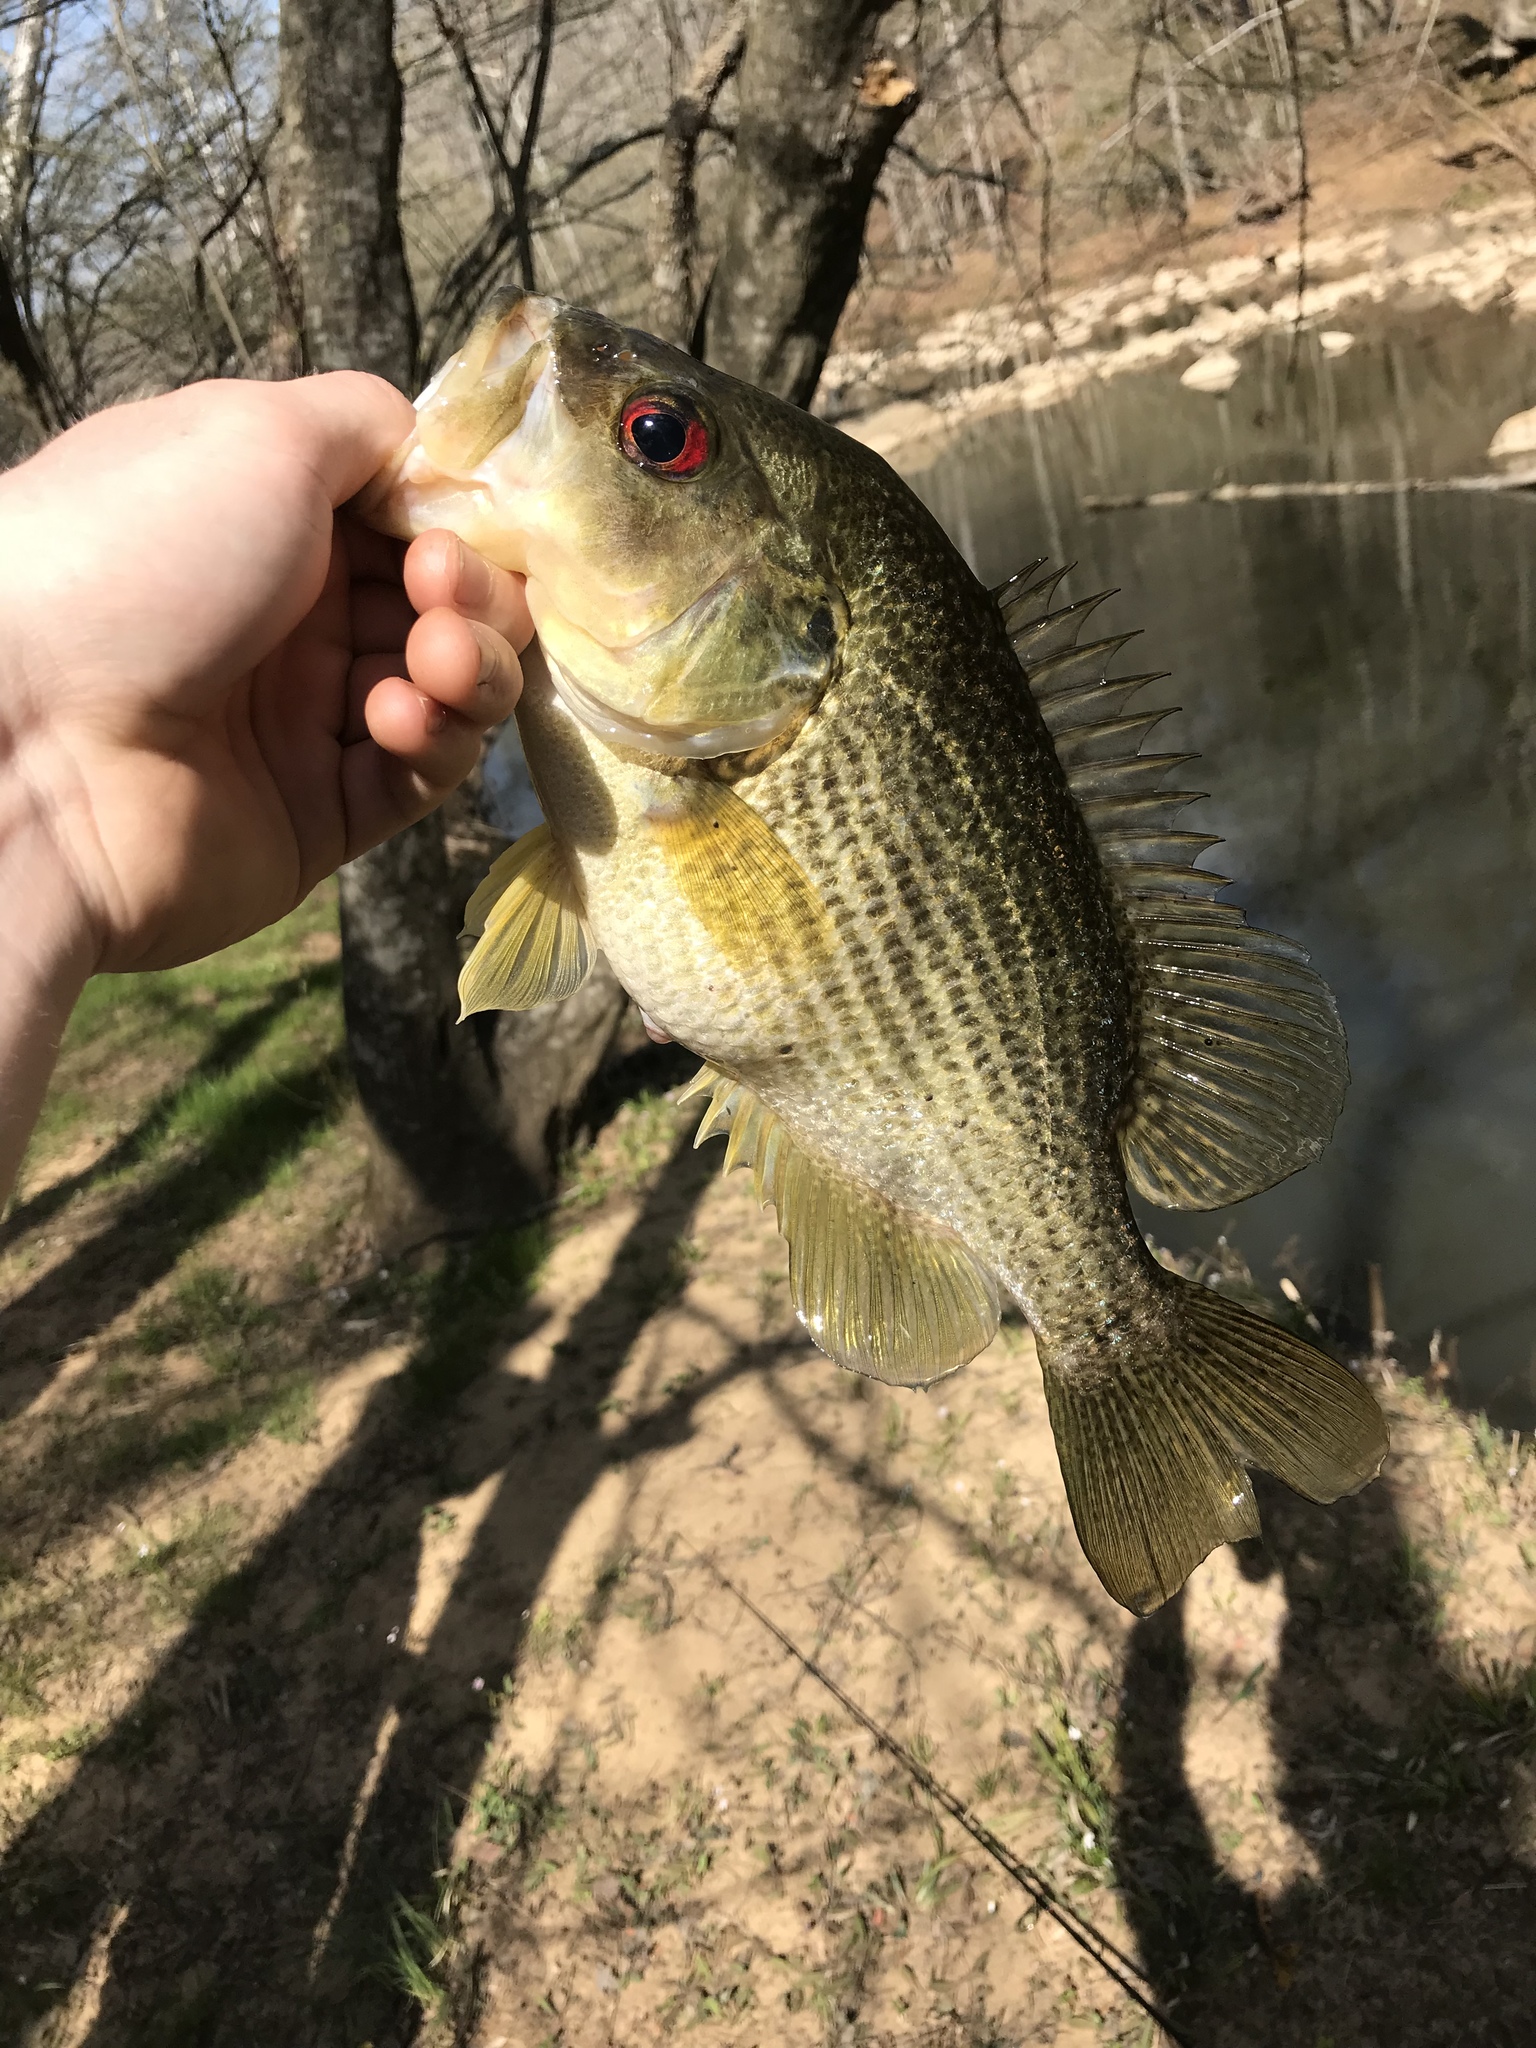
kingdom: Animalia
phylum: Chordata
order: Perciformes
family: Centrarchidae
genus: Ambloplites
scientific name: Ambloplites cavifrons
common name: Roanoke bass
